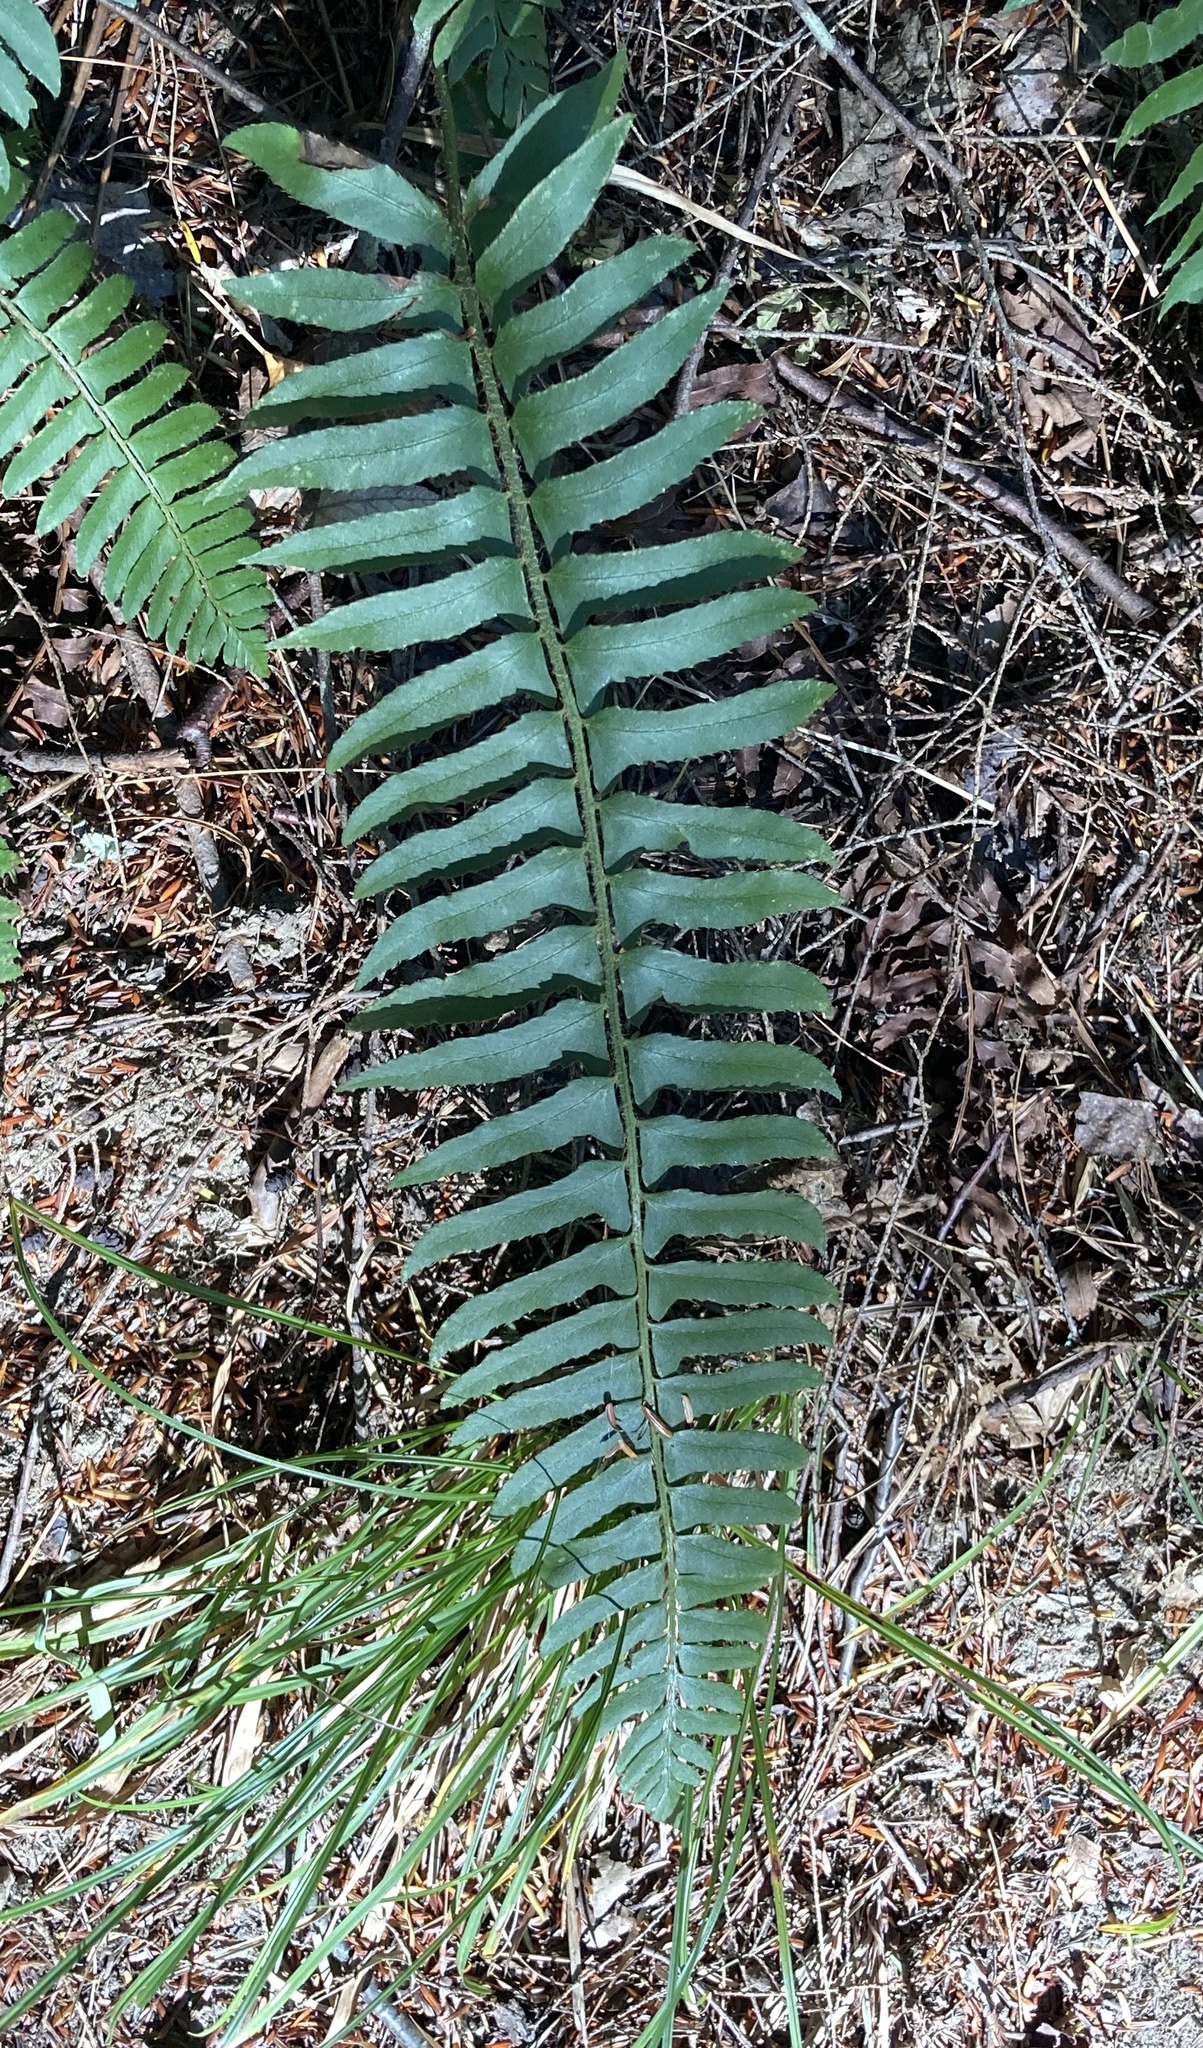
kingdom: Plantae
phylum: Tracheophyta
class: Polypodiopsida
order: Polypodiales
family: Dryopteridaceae
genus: Polystichum
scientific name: Polystichum acrostichoides
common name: Christmas fern
